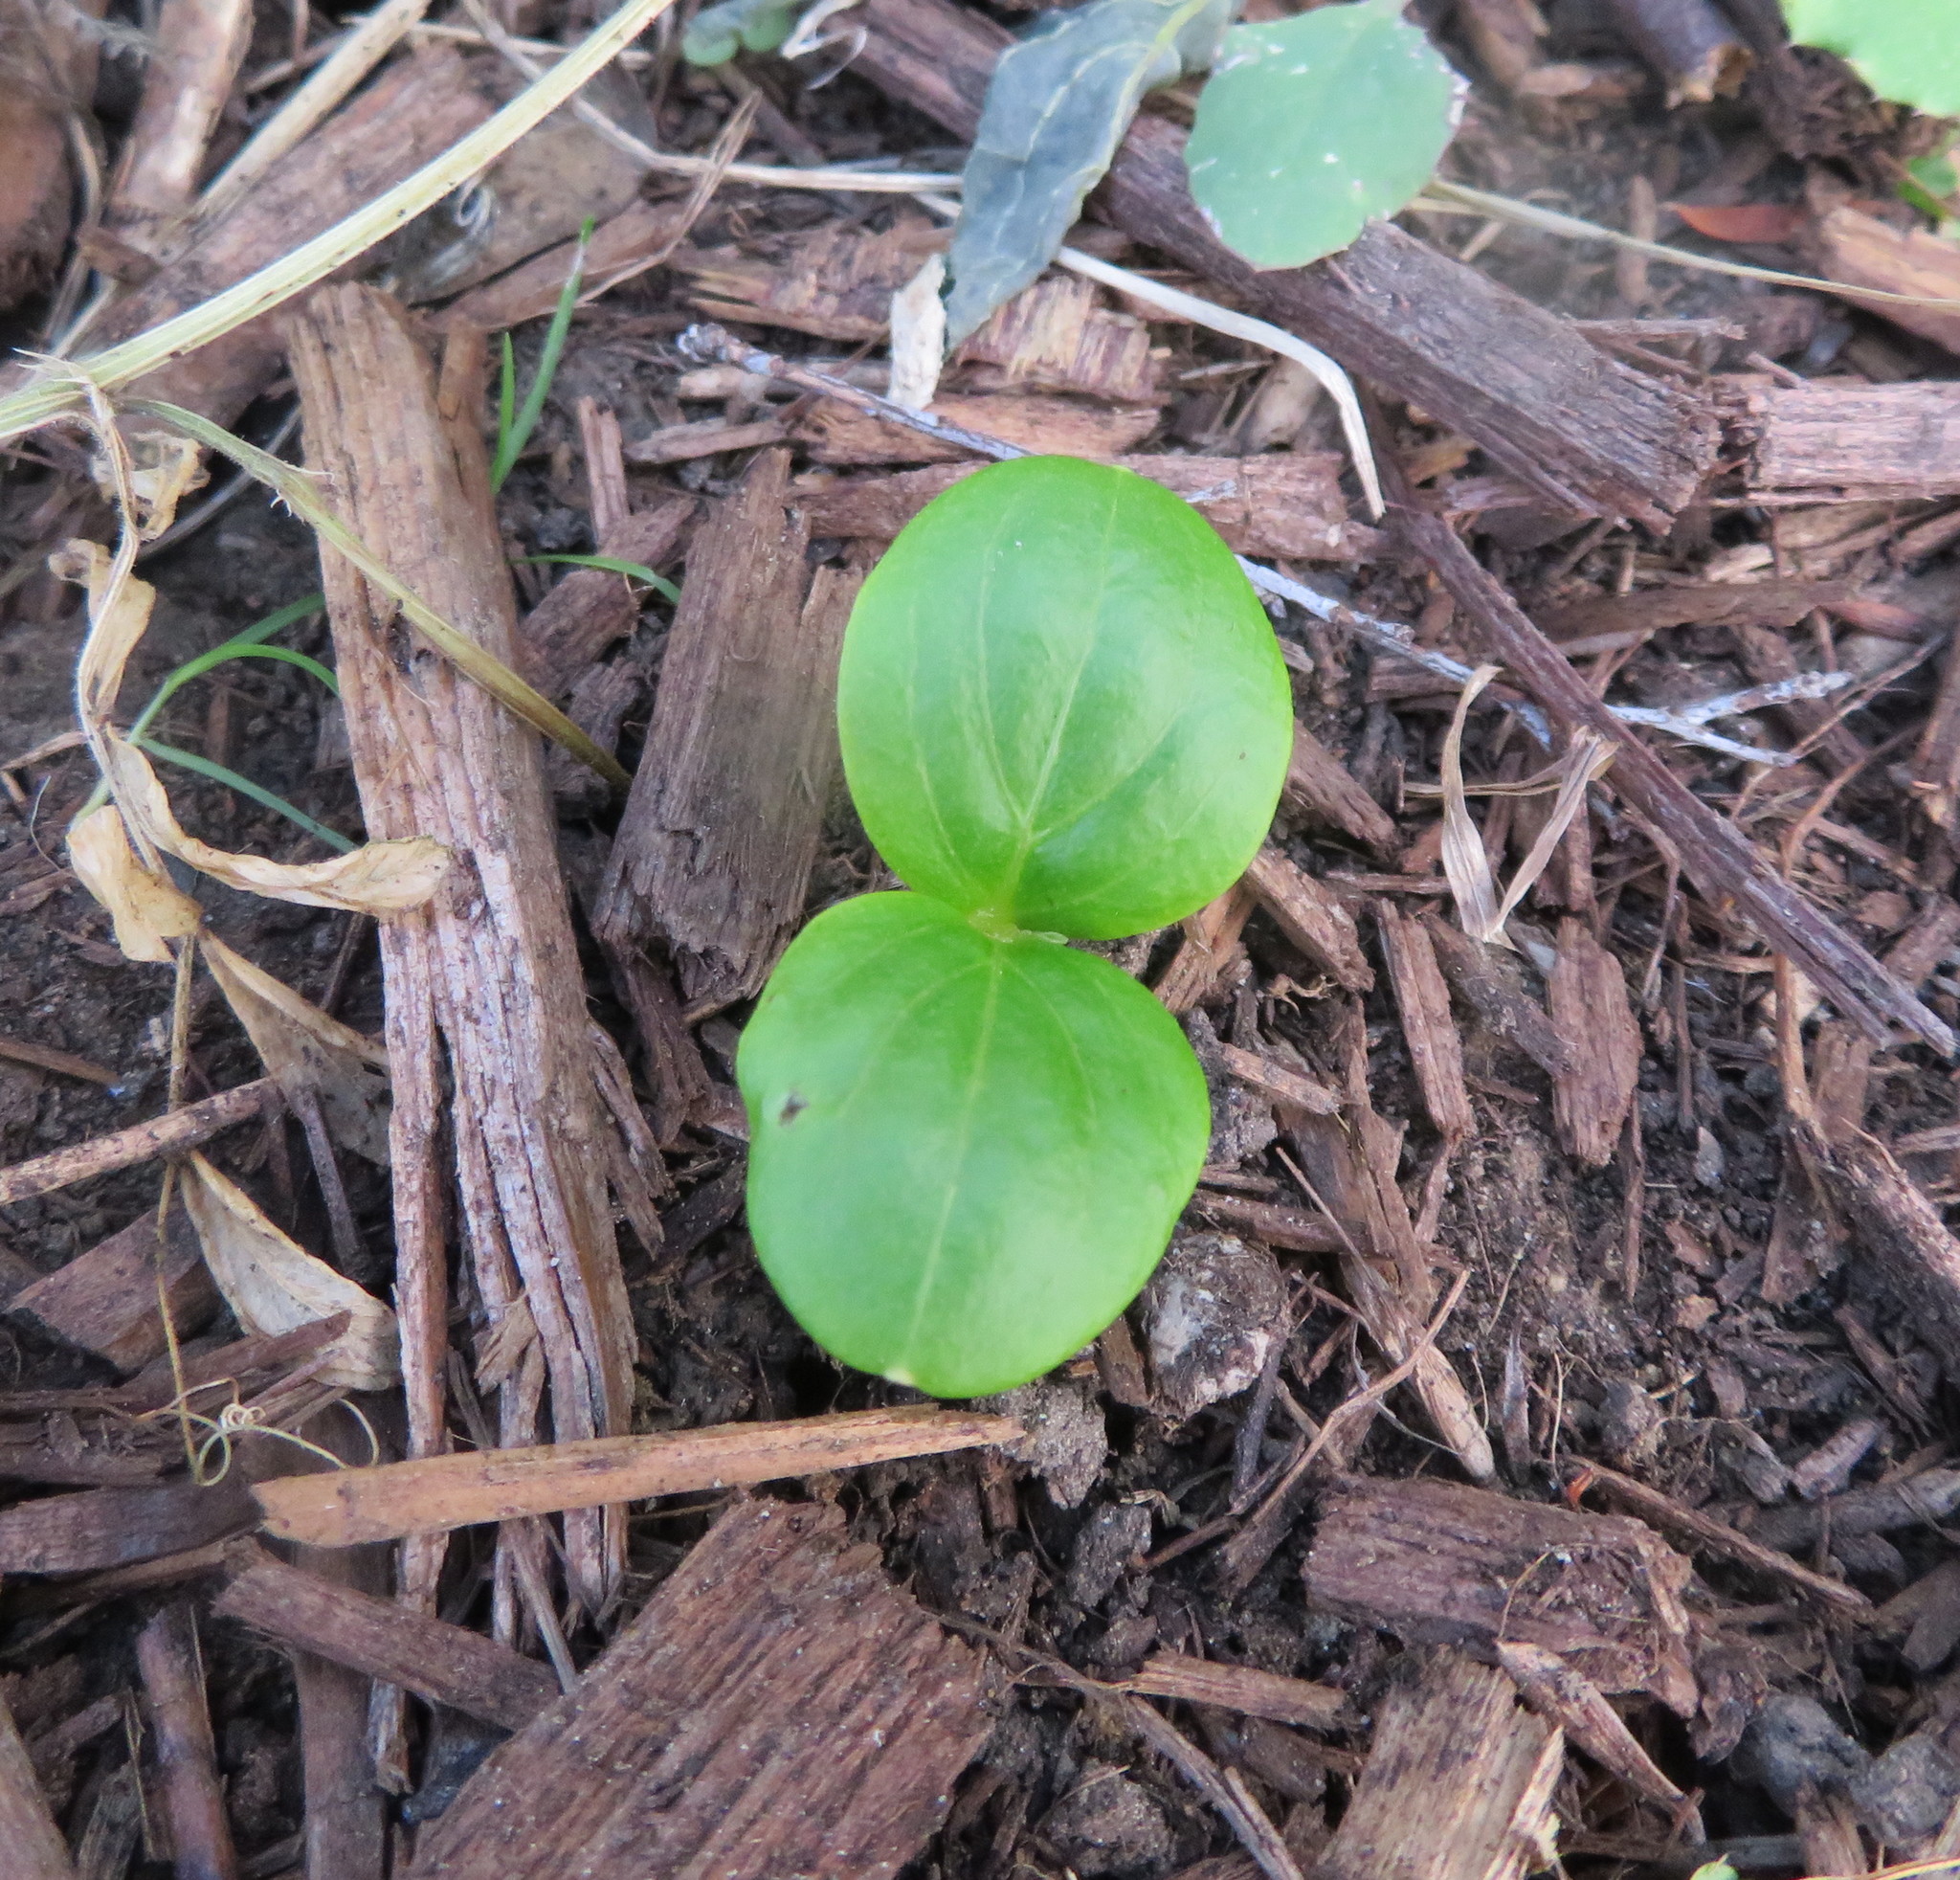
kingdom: Plantae
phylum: Tracheophyta
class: Magnoliopsida
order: Geraniales
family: Melianthaceae
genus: Melianthus
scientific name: Melianthus major
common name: Honey-flower
